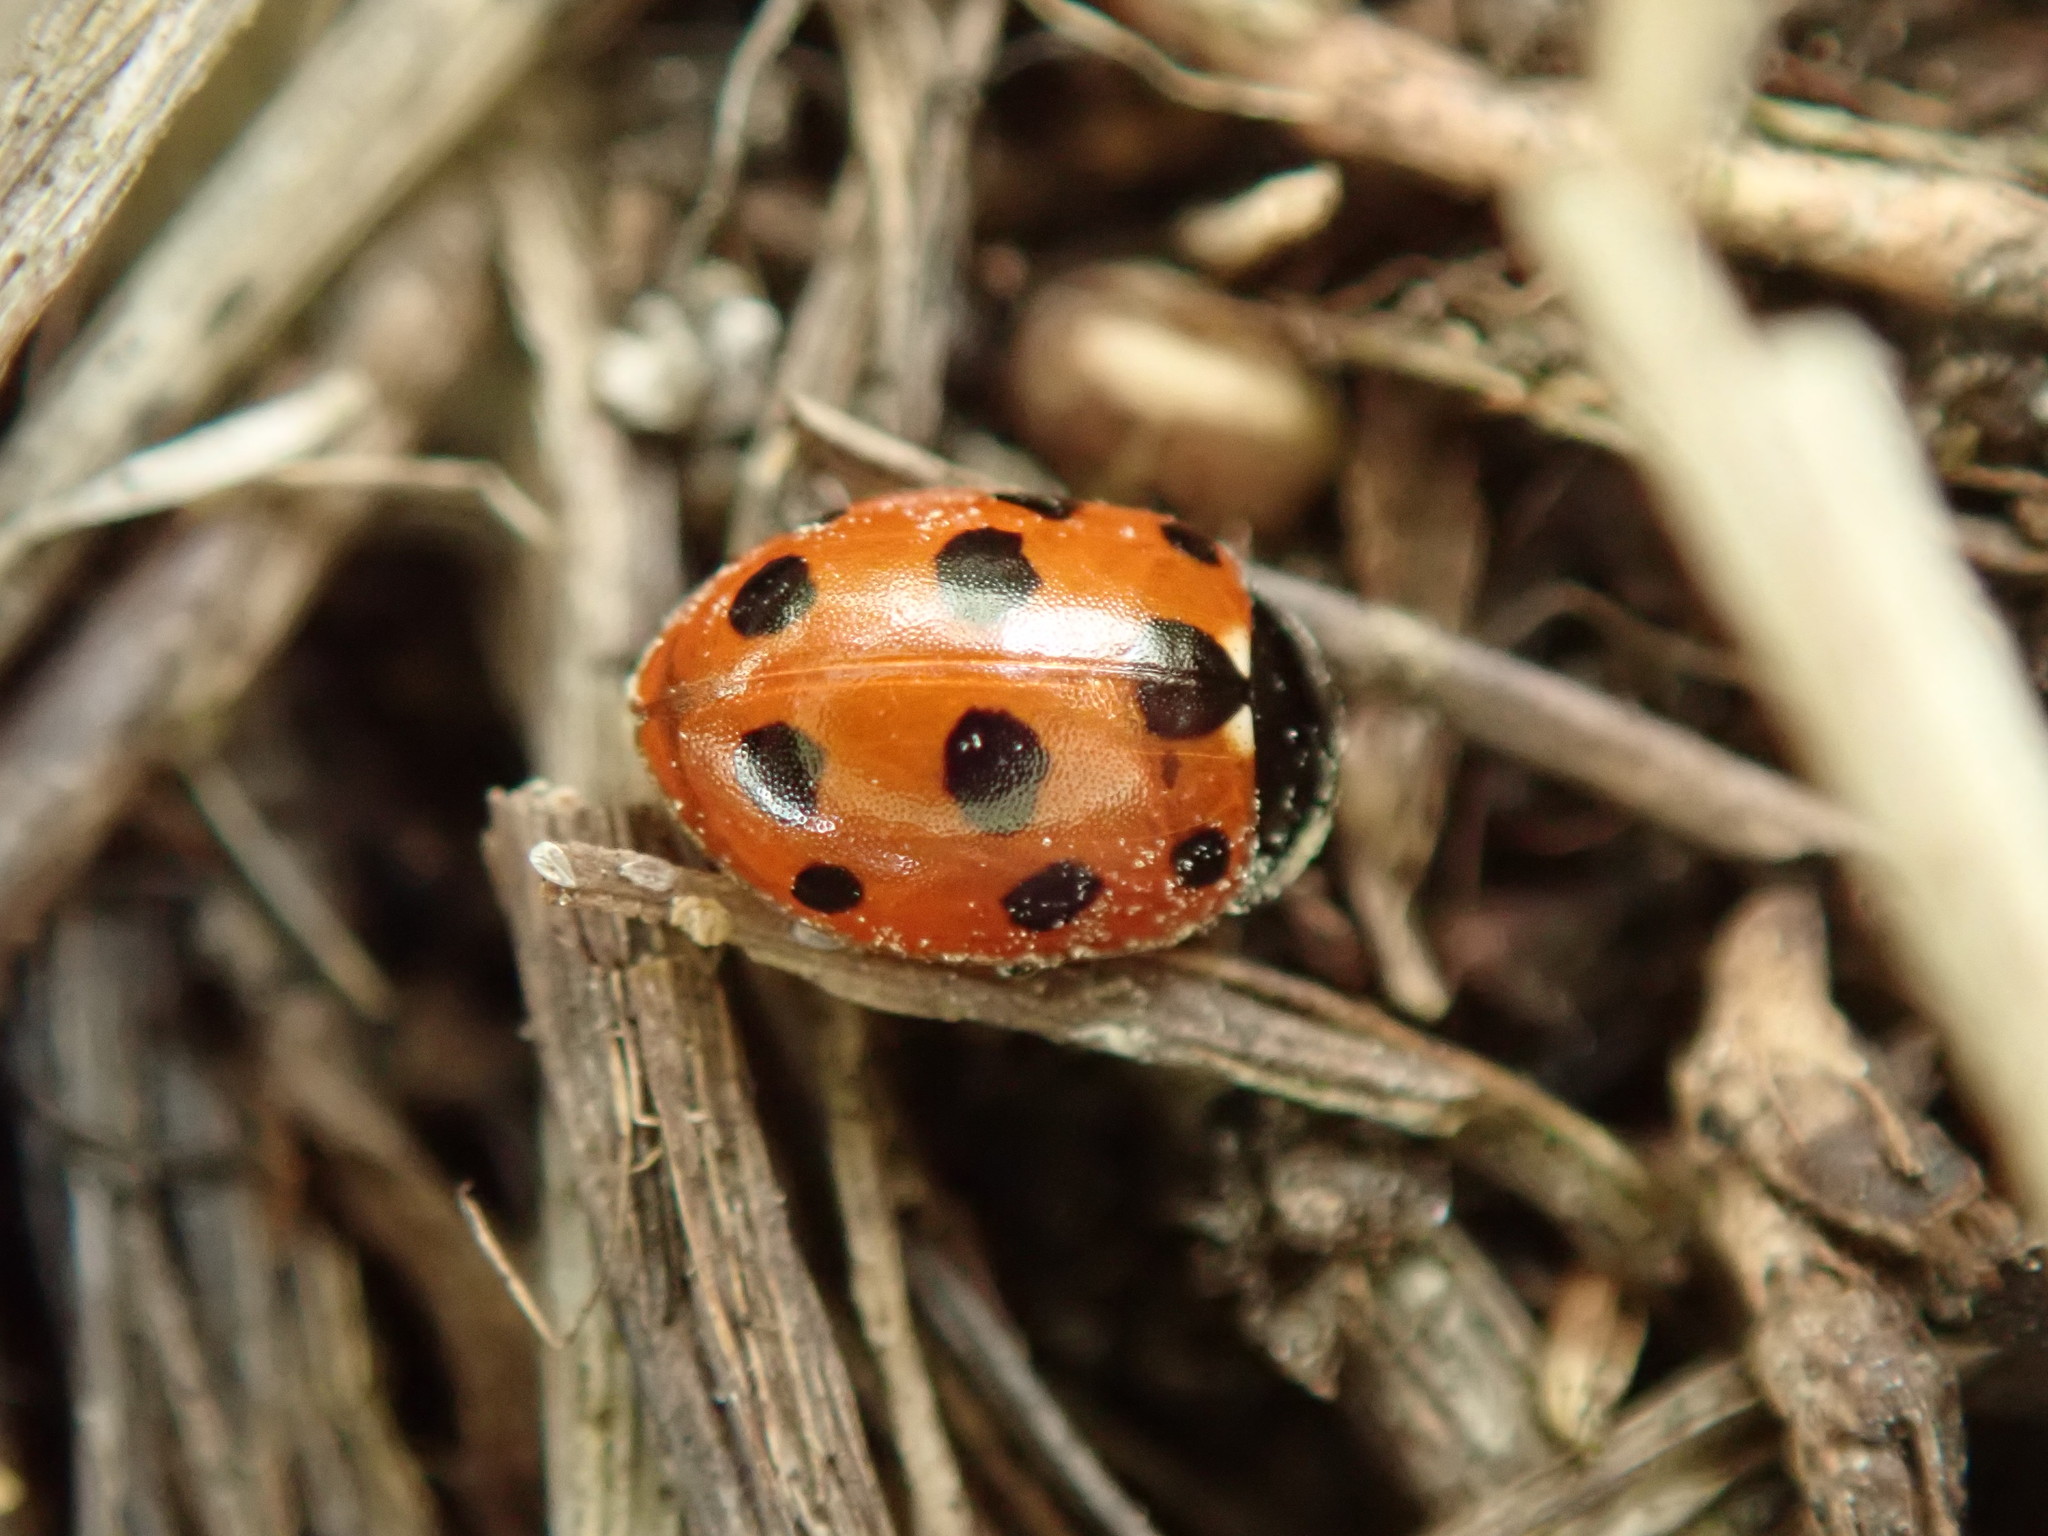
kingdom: Animalia
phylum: Arthropoda
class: Insecta
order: Coleoptera
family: Coccinellidae
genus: Coccinella
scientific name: Coccinella undecimpunctata
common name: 11-spot ladybird
